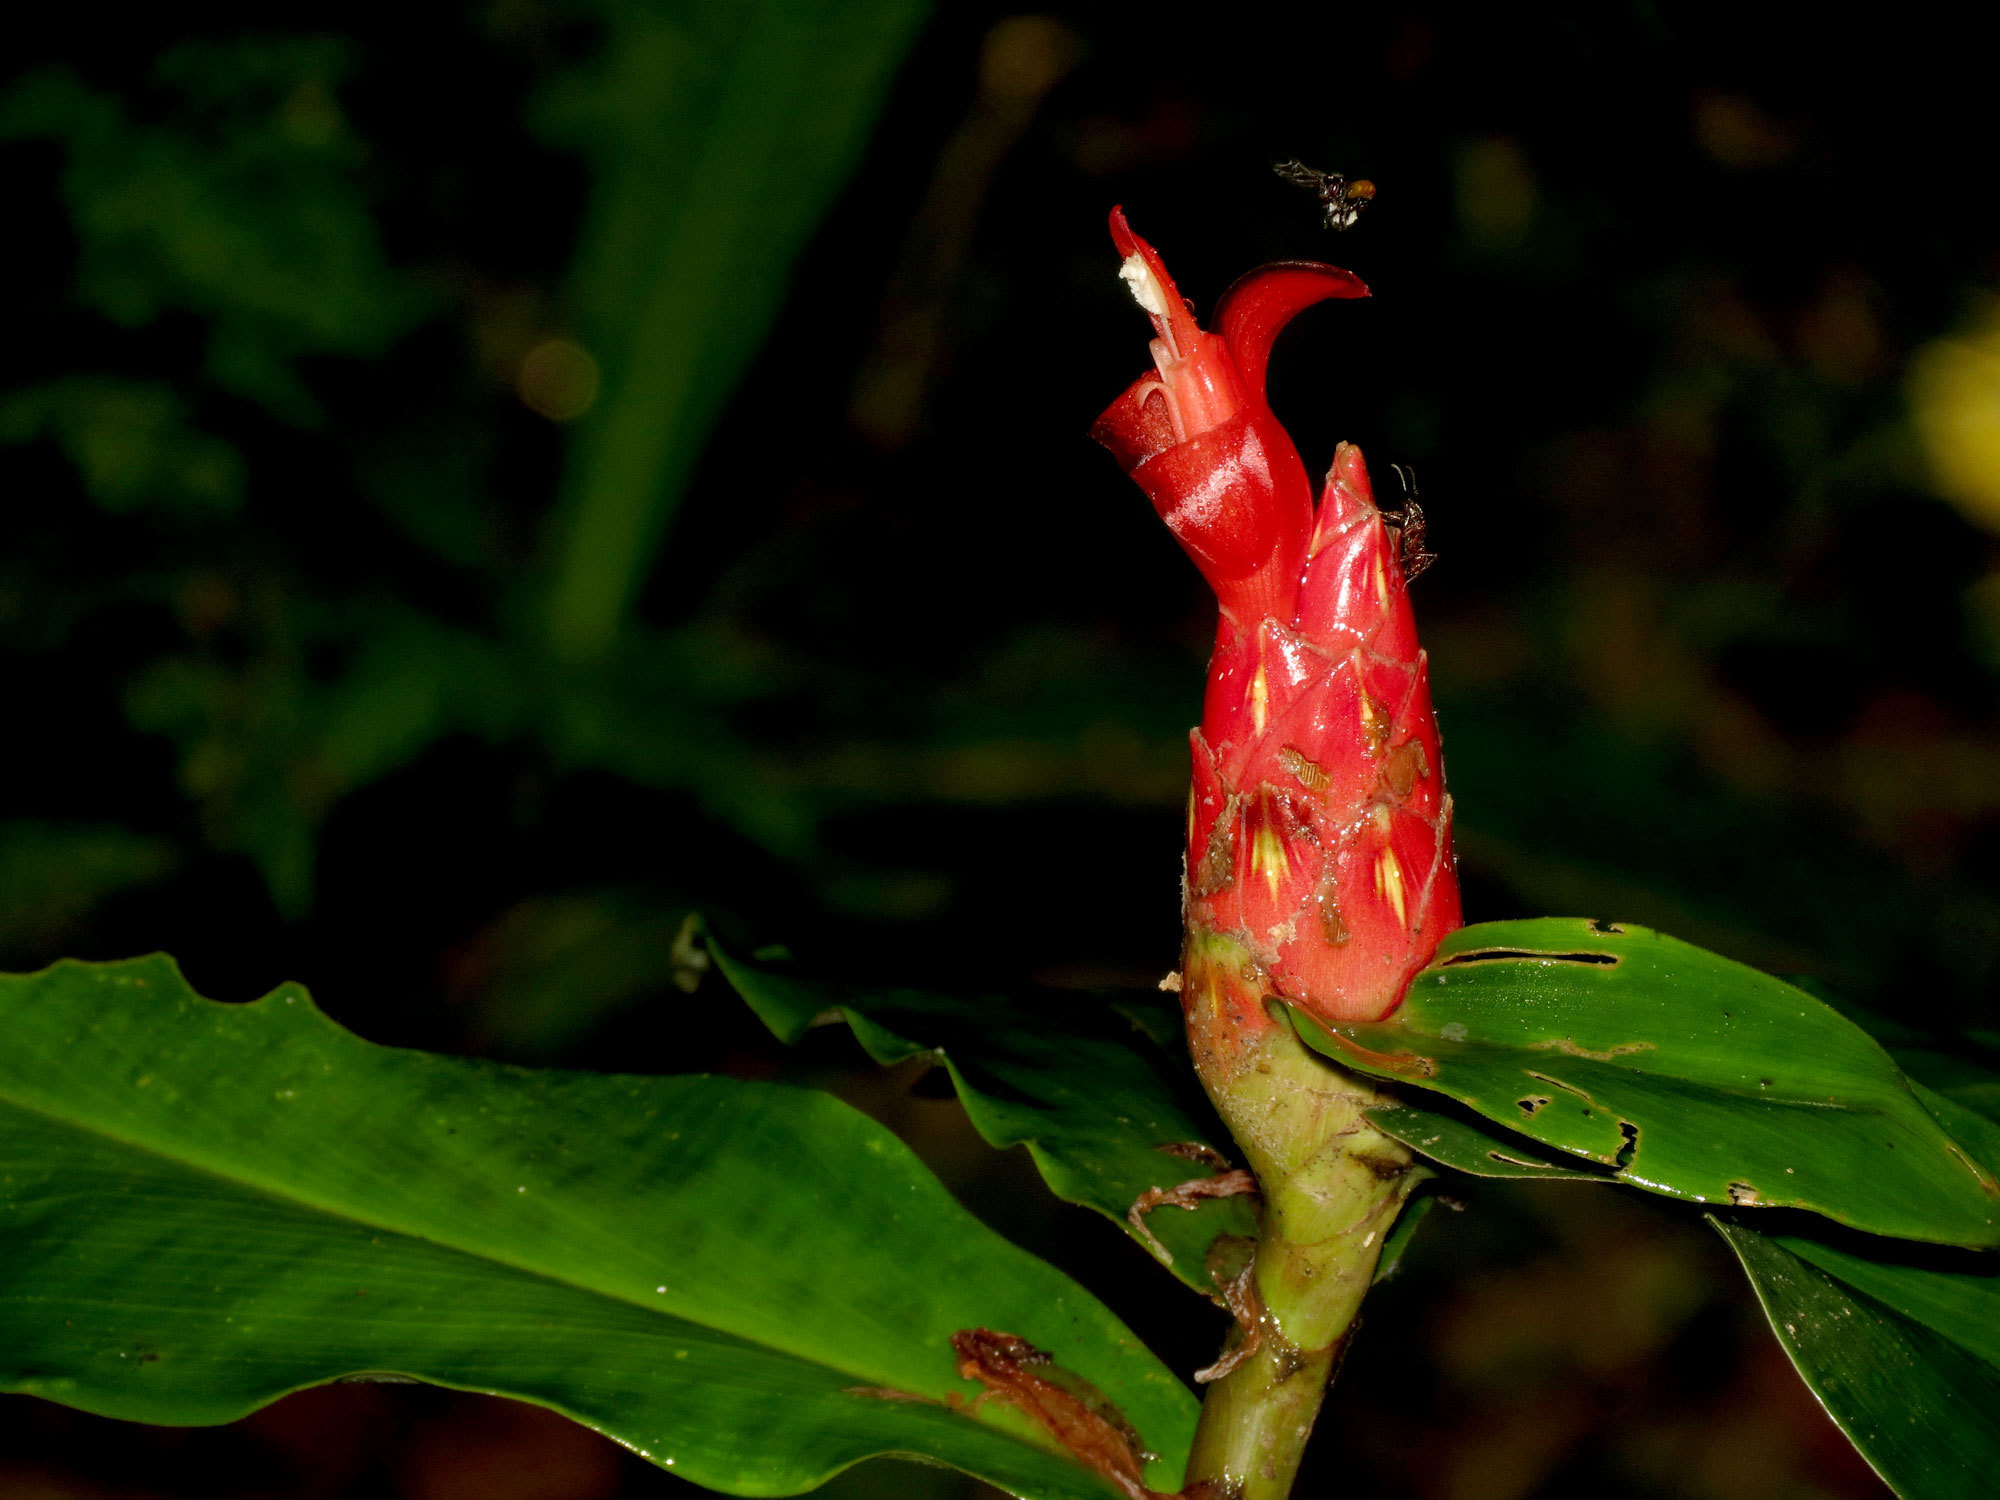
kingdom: Plantae
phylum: Tracheophyta
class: Liliopsida
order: Zingiberales
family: Costaceae
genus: Costus
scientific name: Costus pulverulentus
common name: Spiral ginger
